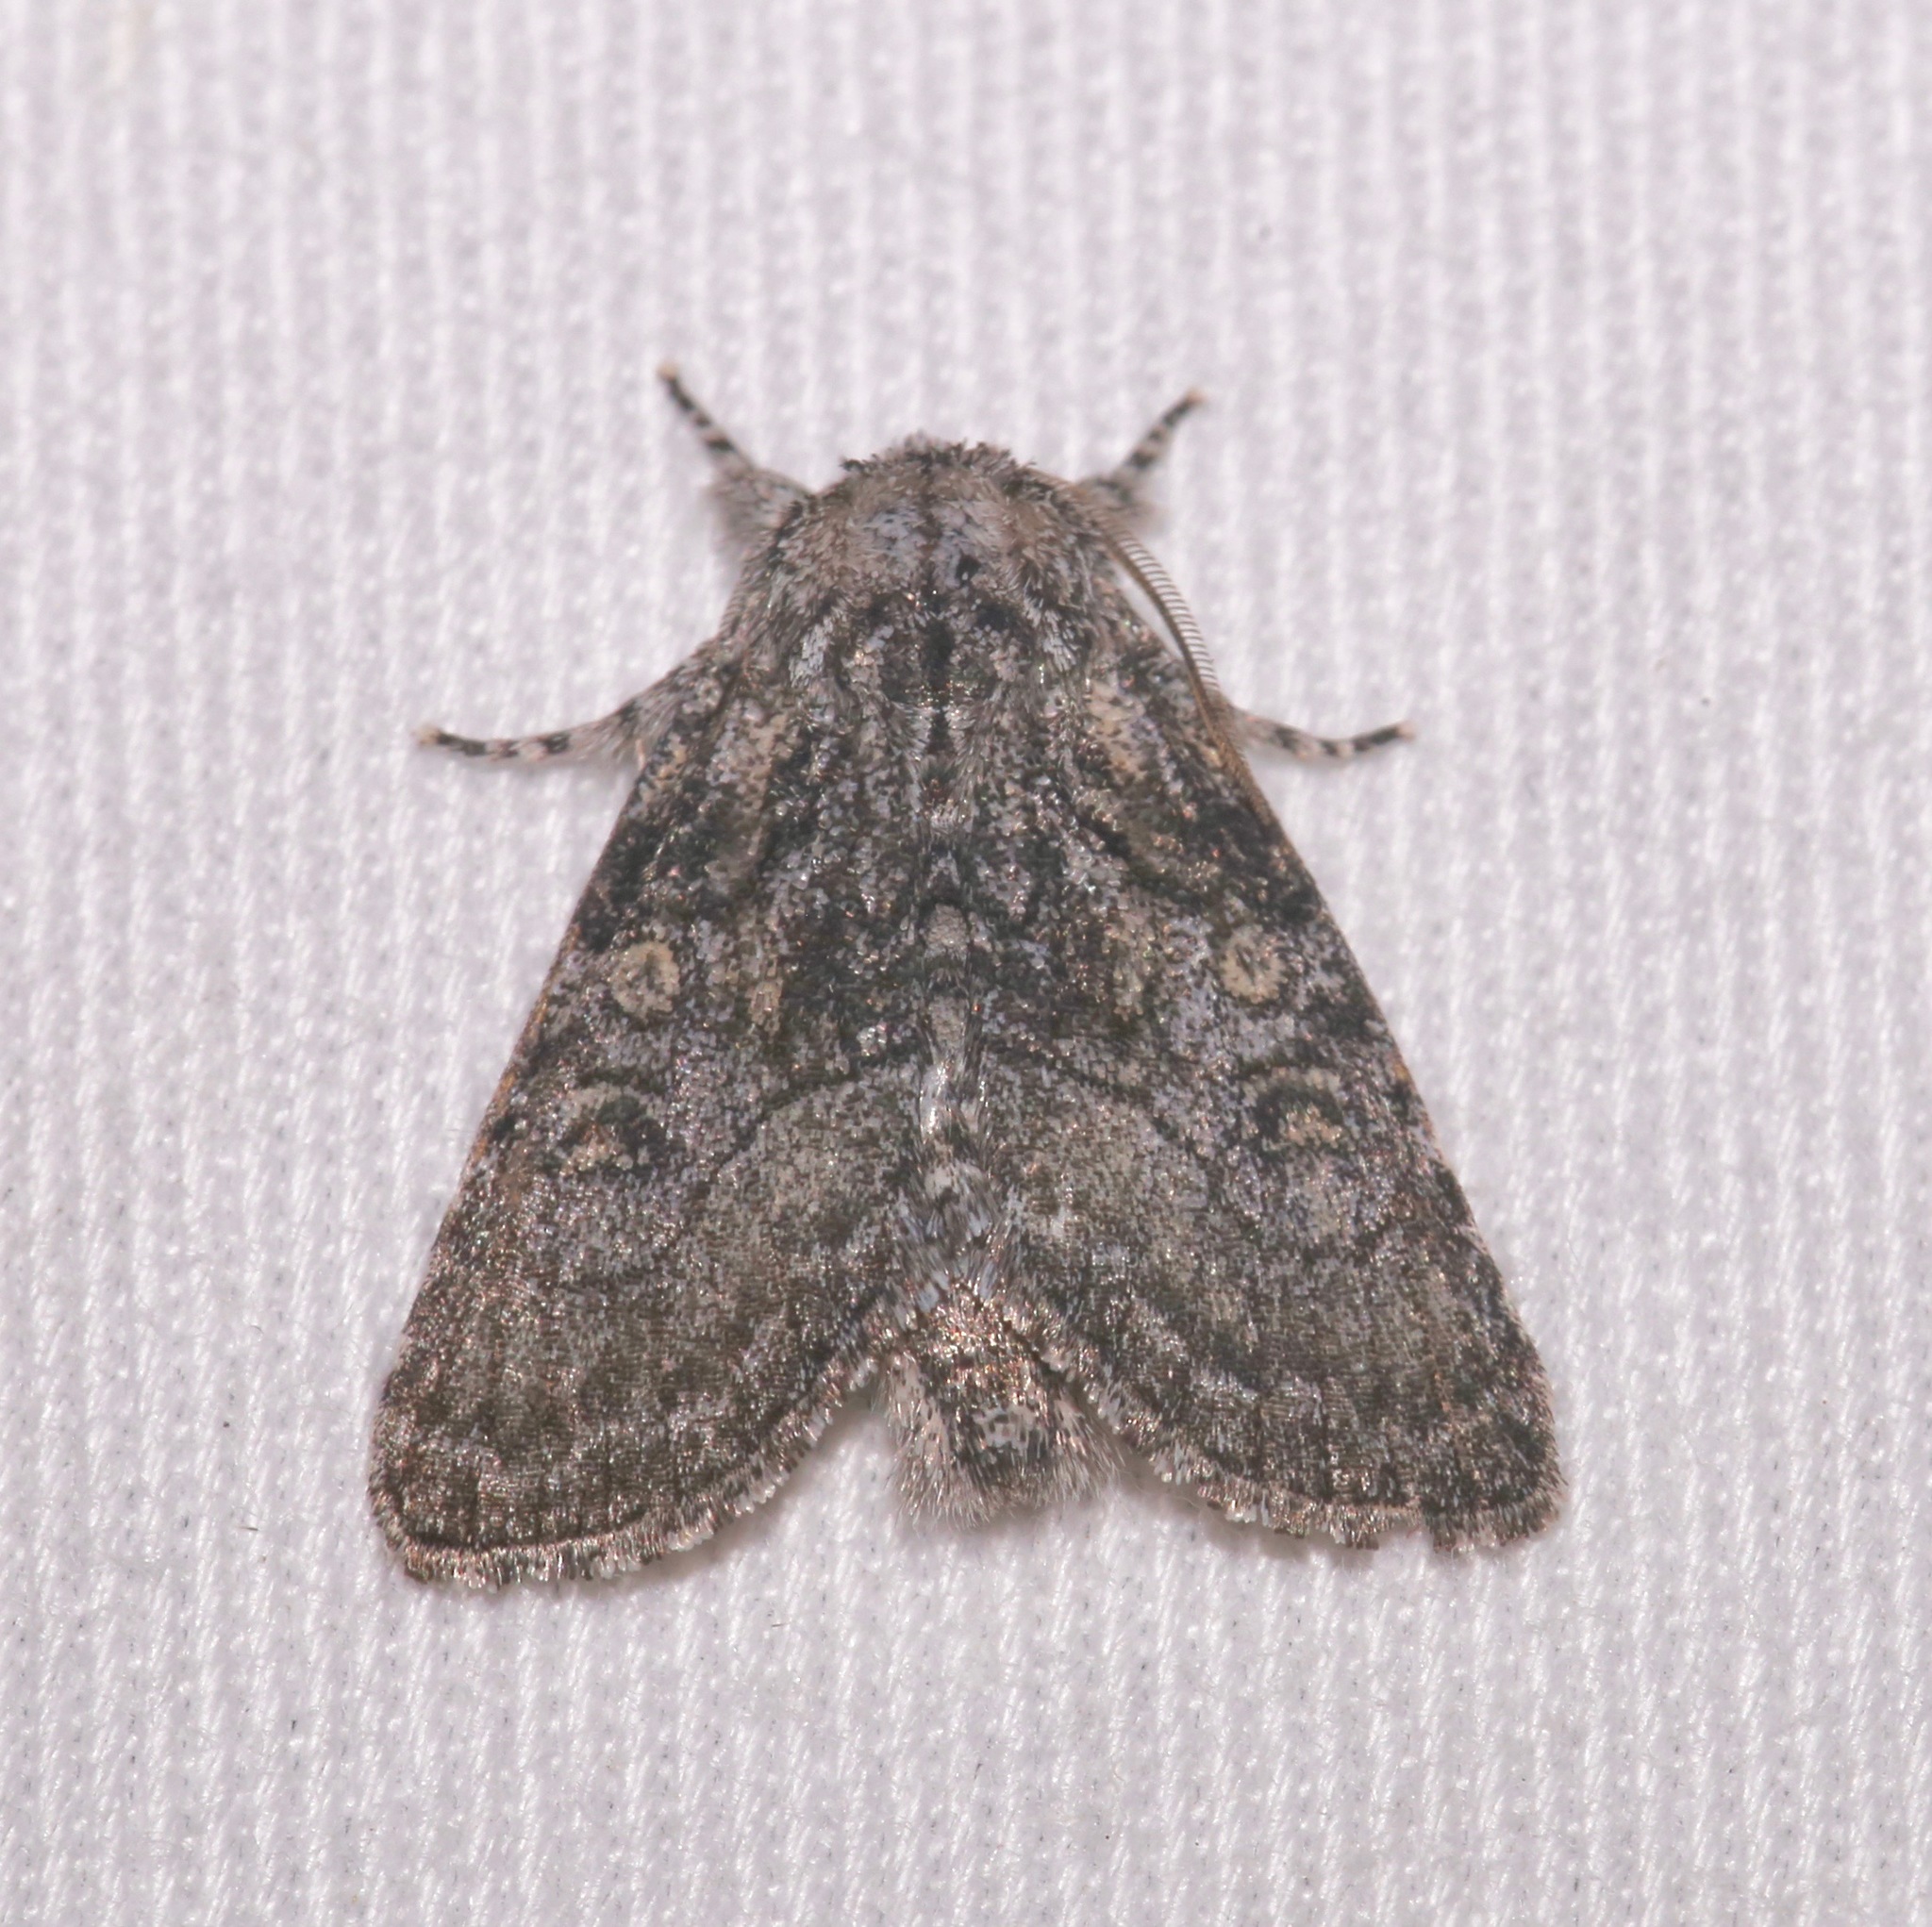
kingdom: Animalia
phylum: Arthropoda
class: Insecta
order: Lepidoptera
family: Noctuidae
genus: Raphia
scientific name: Raphia frater
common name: Brother
